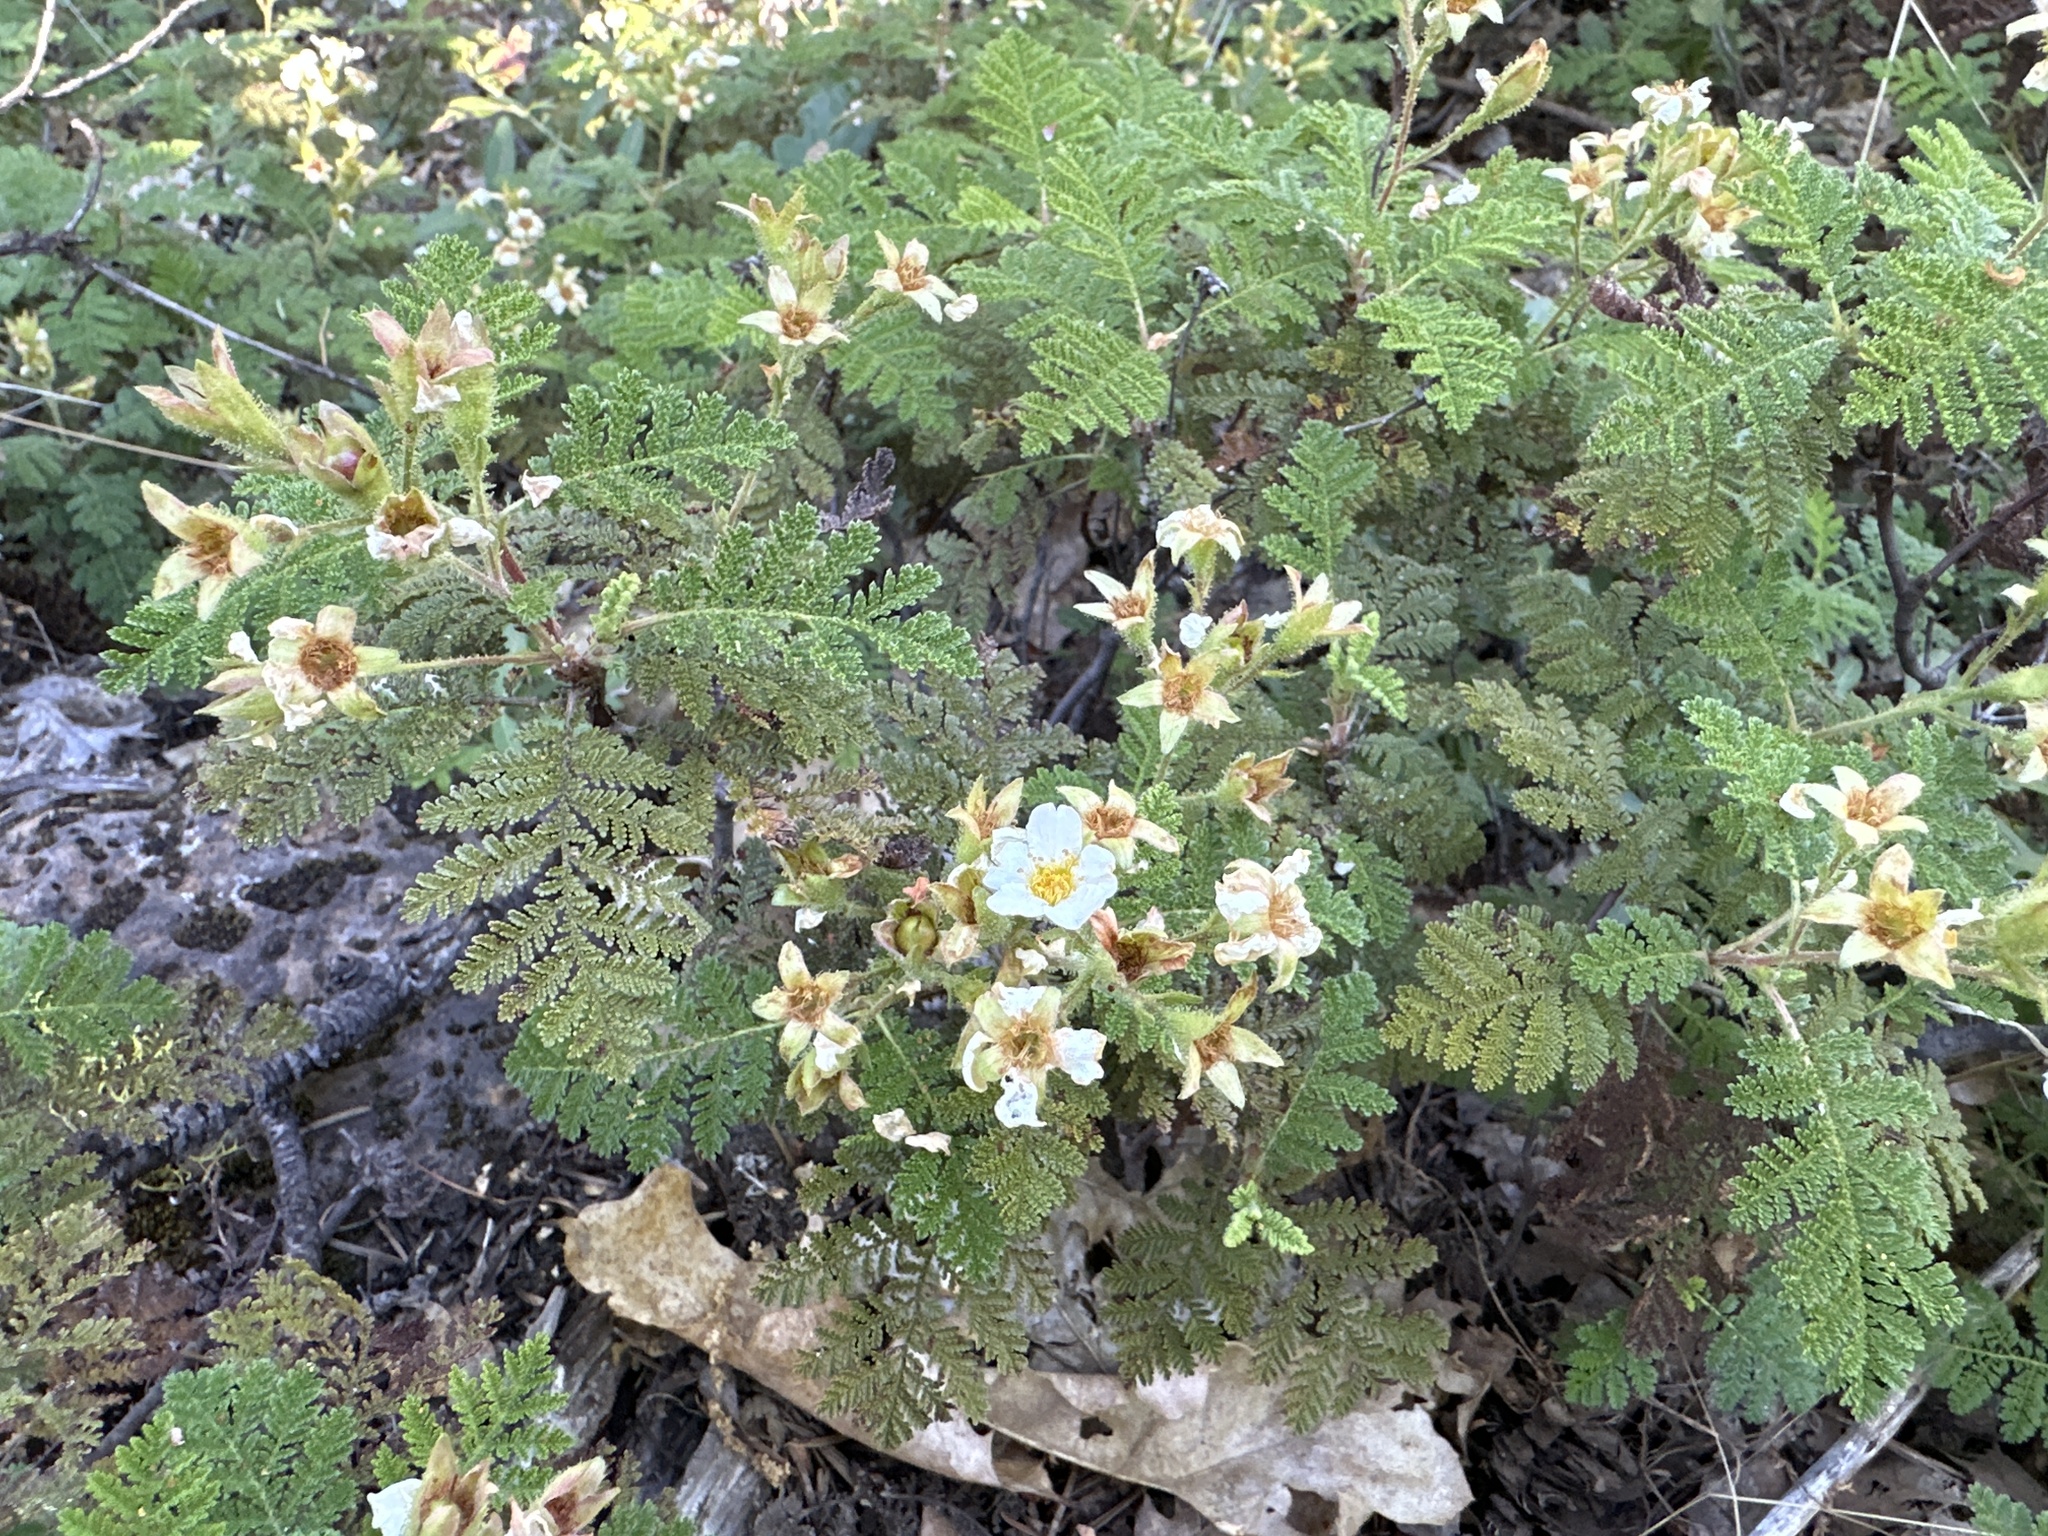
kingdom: Plantae
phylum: Tracheophyta
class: Magnoliopsida
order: Rosales
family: Rosaceae
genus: Chamaebatia
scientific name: Chamaebatia foliolosa
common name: Mountain misery
